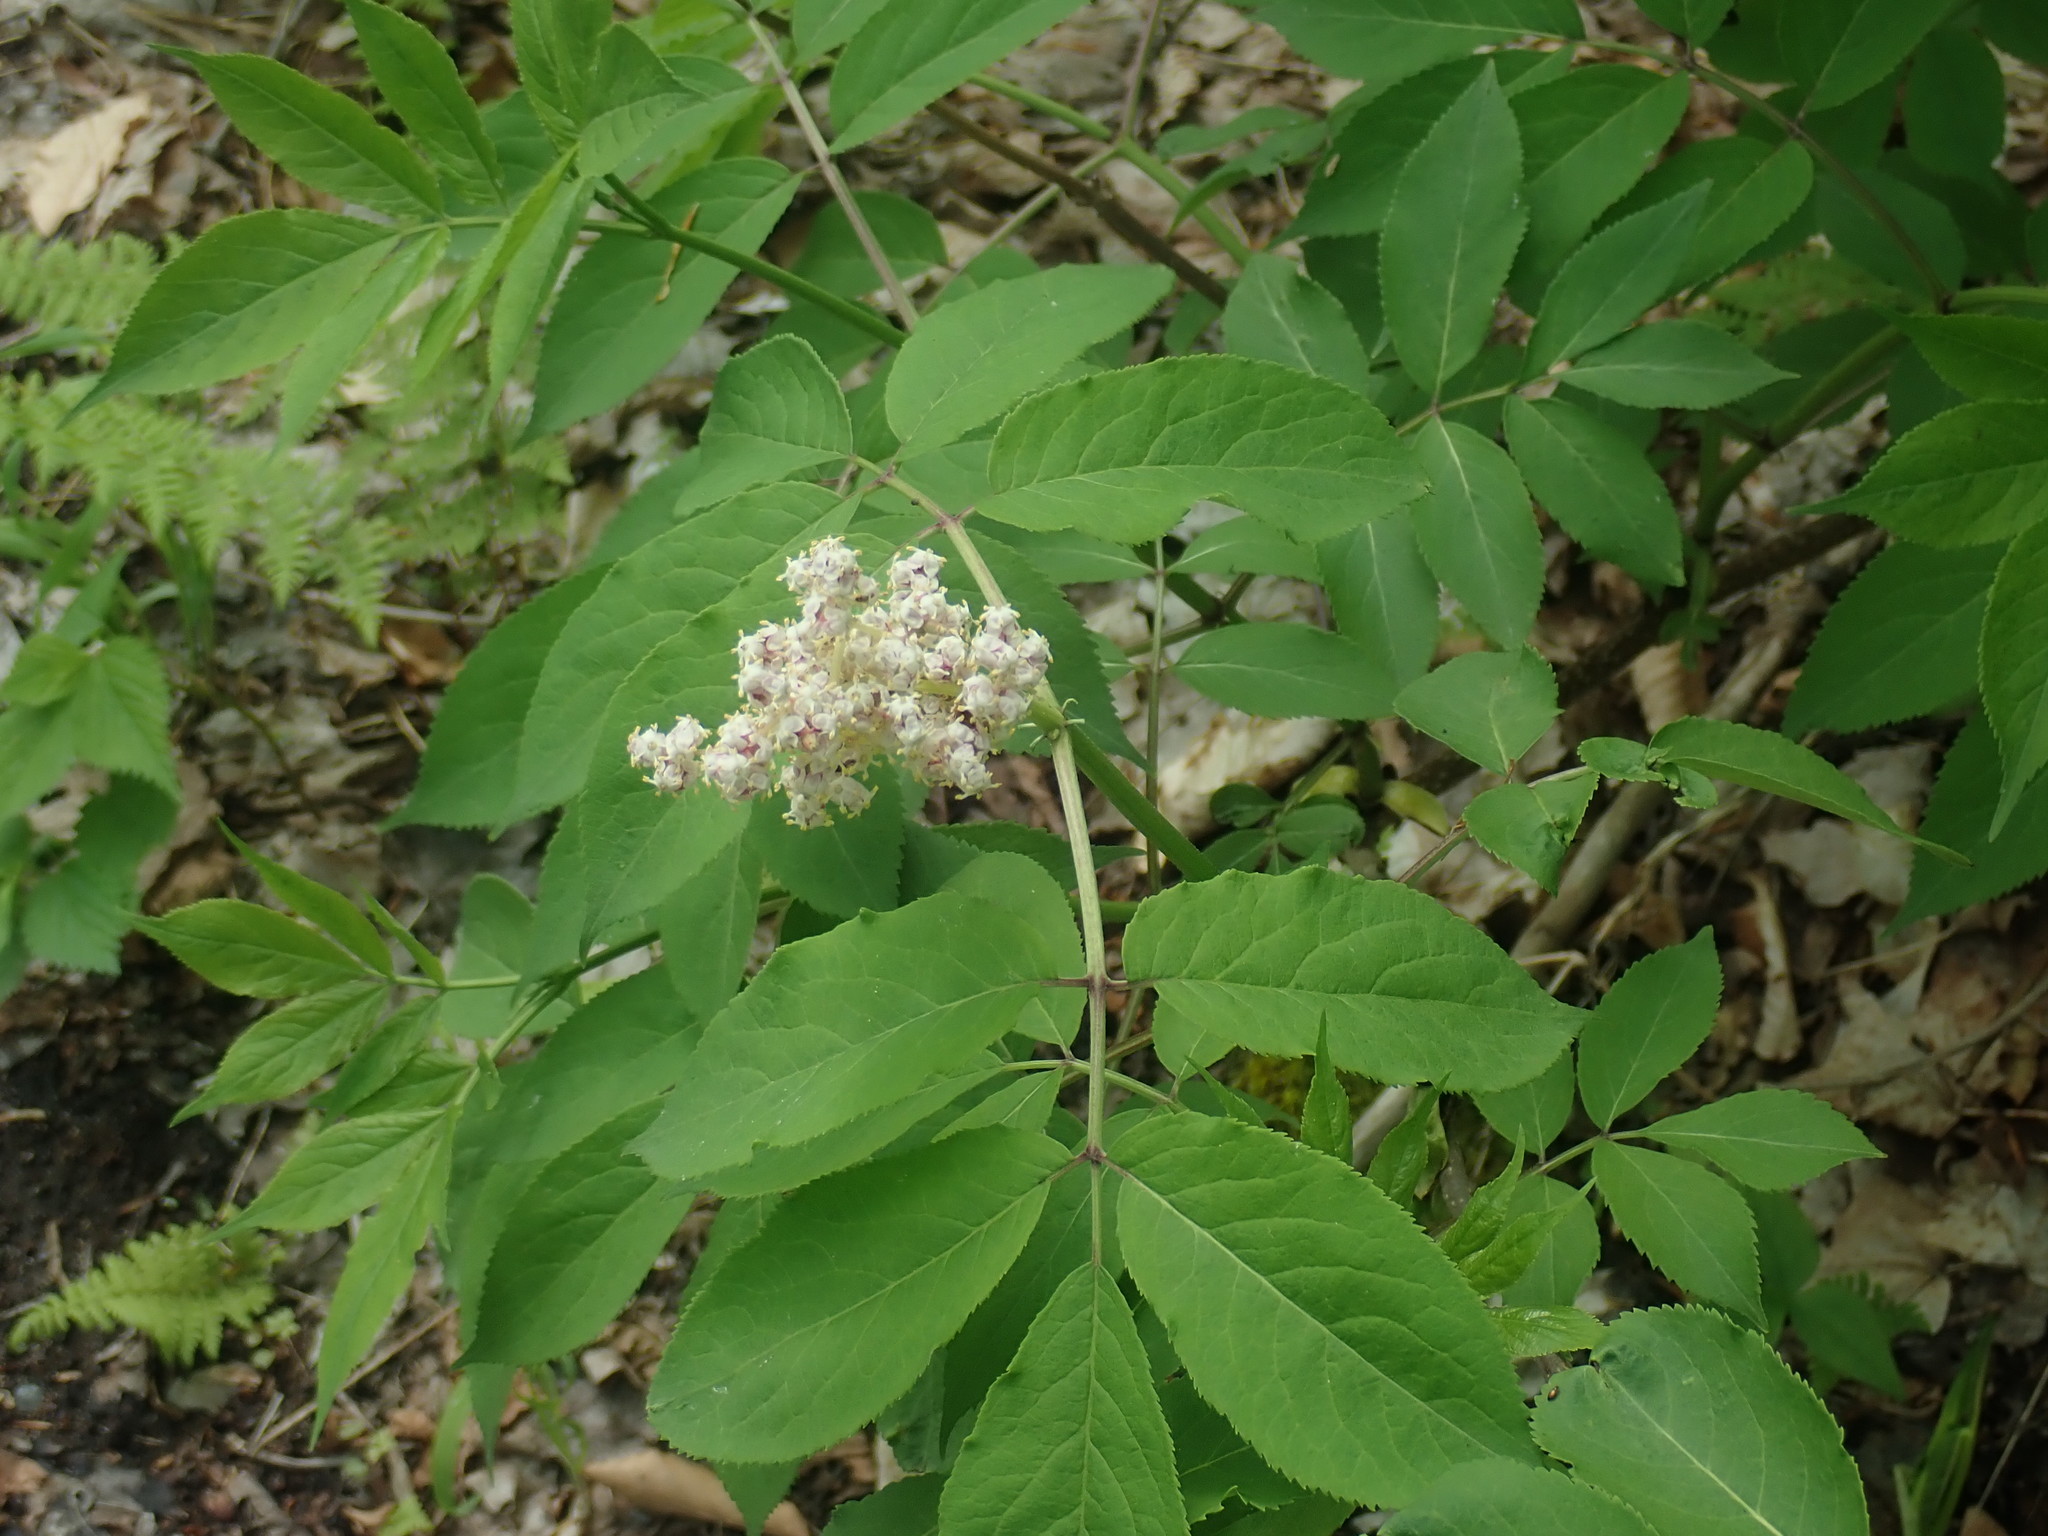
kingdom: Plantae
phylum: Tracheophyta
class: Magnoliopsida
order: Dipsacales
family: Viburnaceae
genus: Sambucus
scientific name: Sambucus racemosa
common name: Red-berried elder
